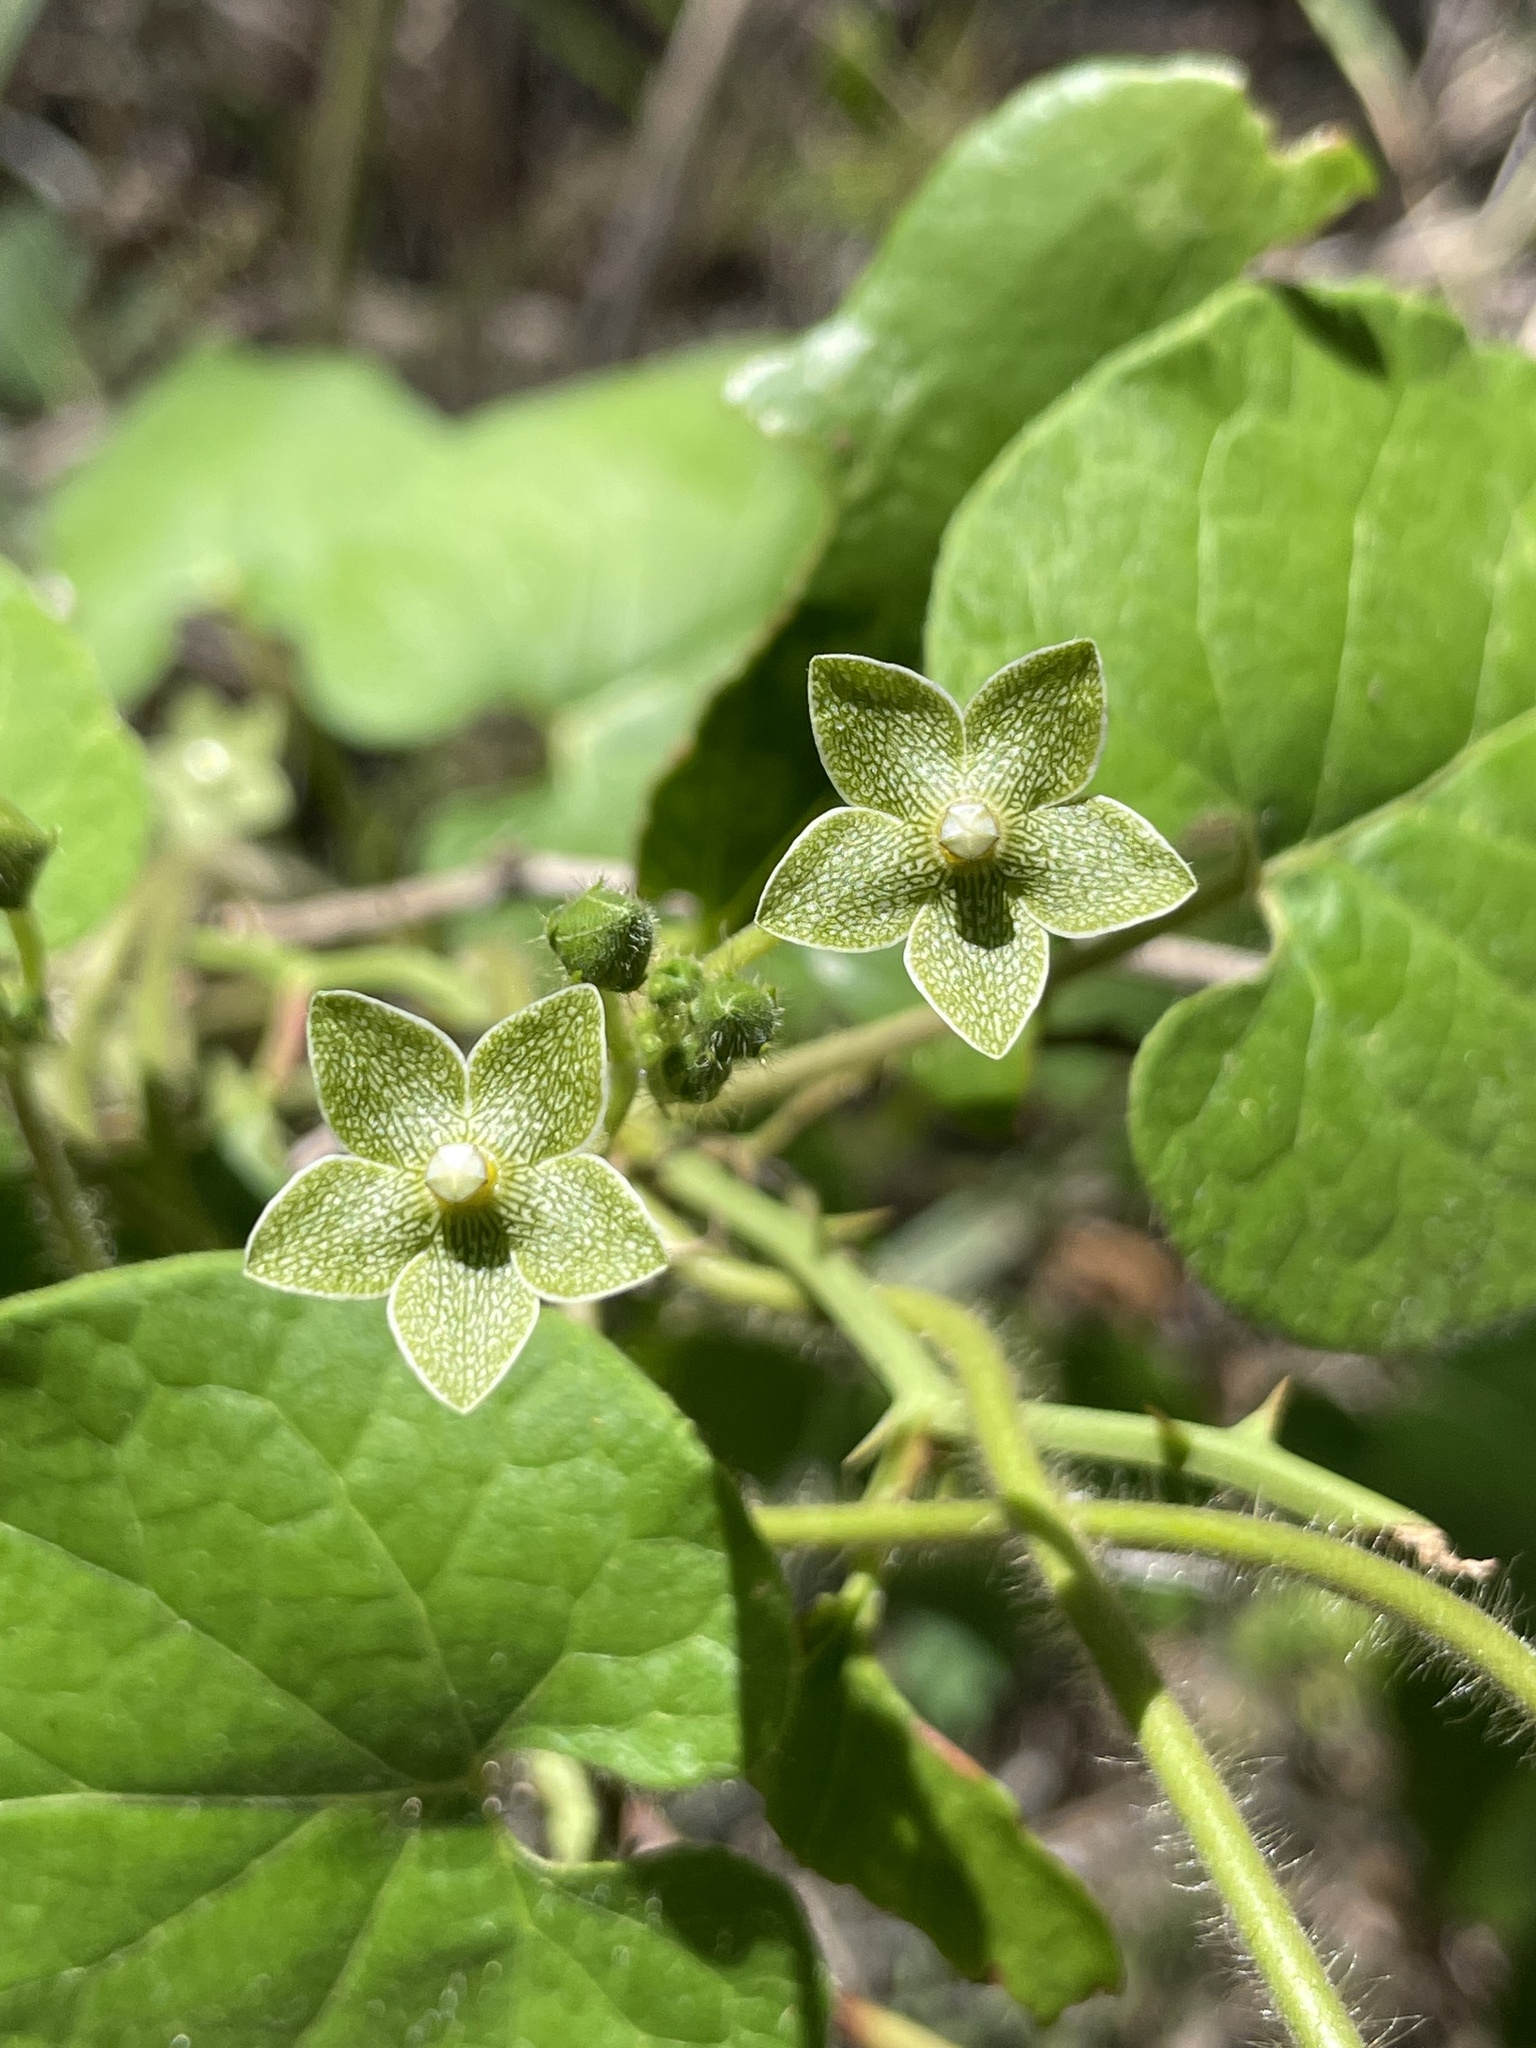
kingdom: Plantae
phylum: Tracheophyta
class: Magnoliopsida
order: Gentianales
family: Apocynaceae
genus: Dictyanthus
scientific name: Dictyanthus reticulatus
